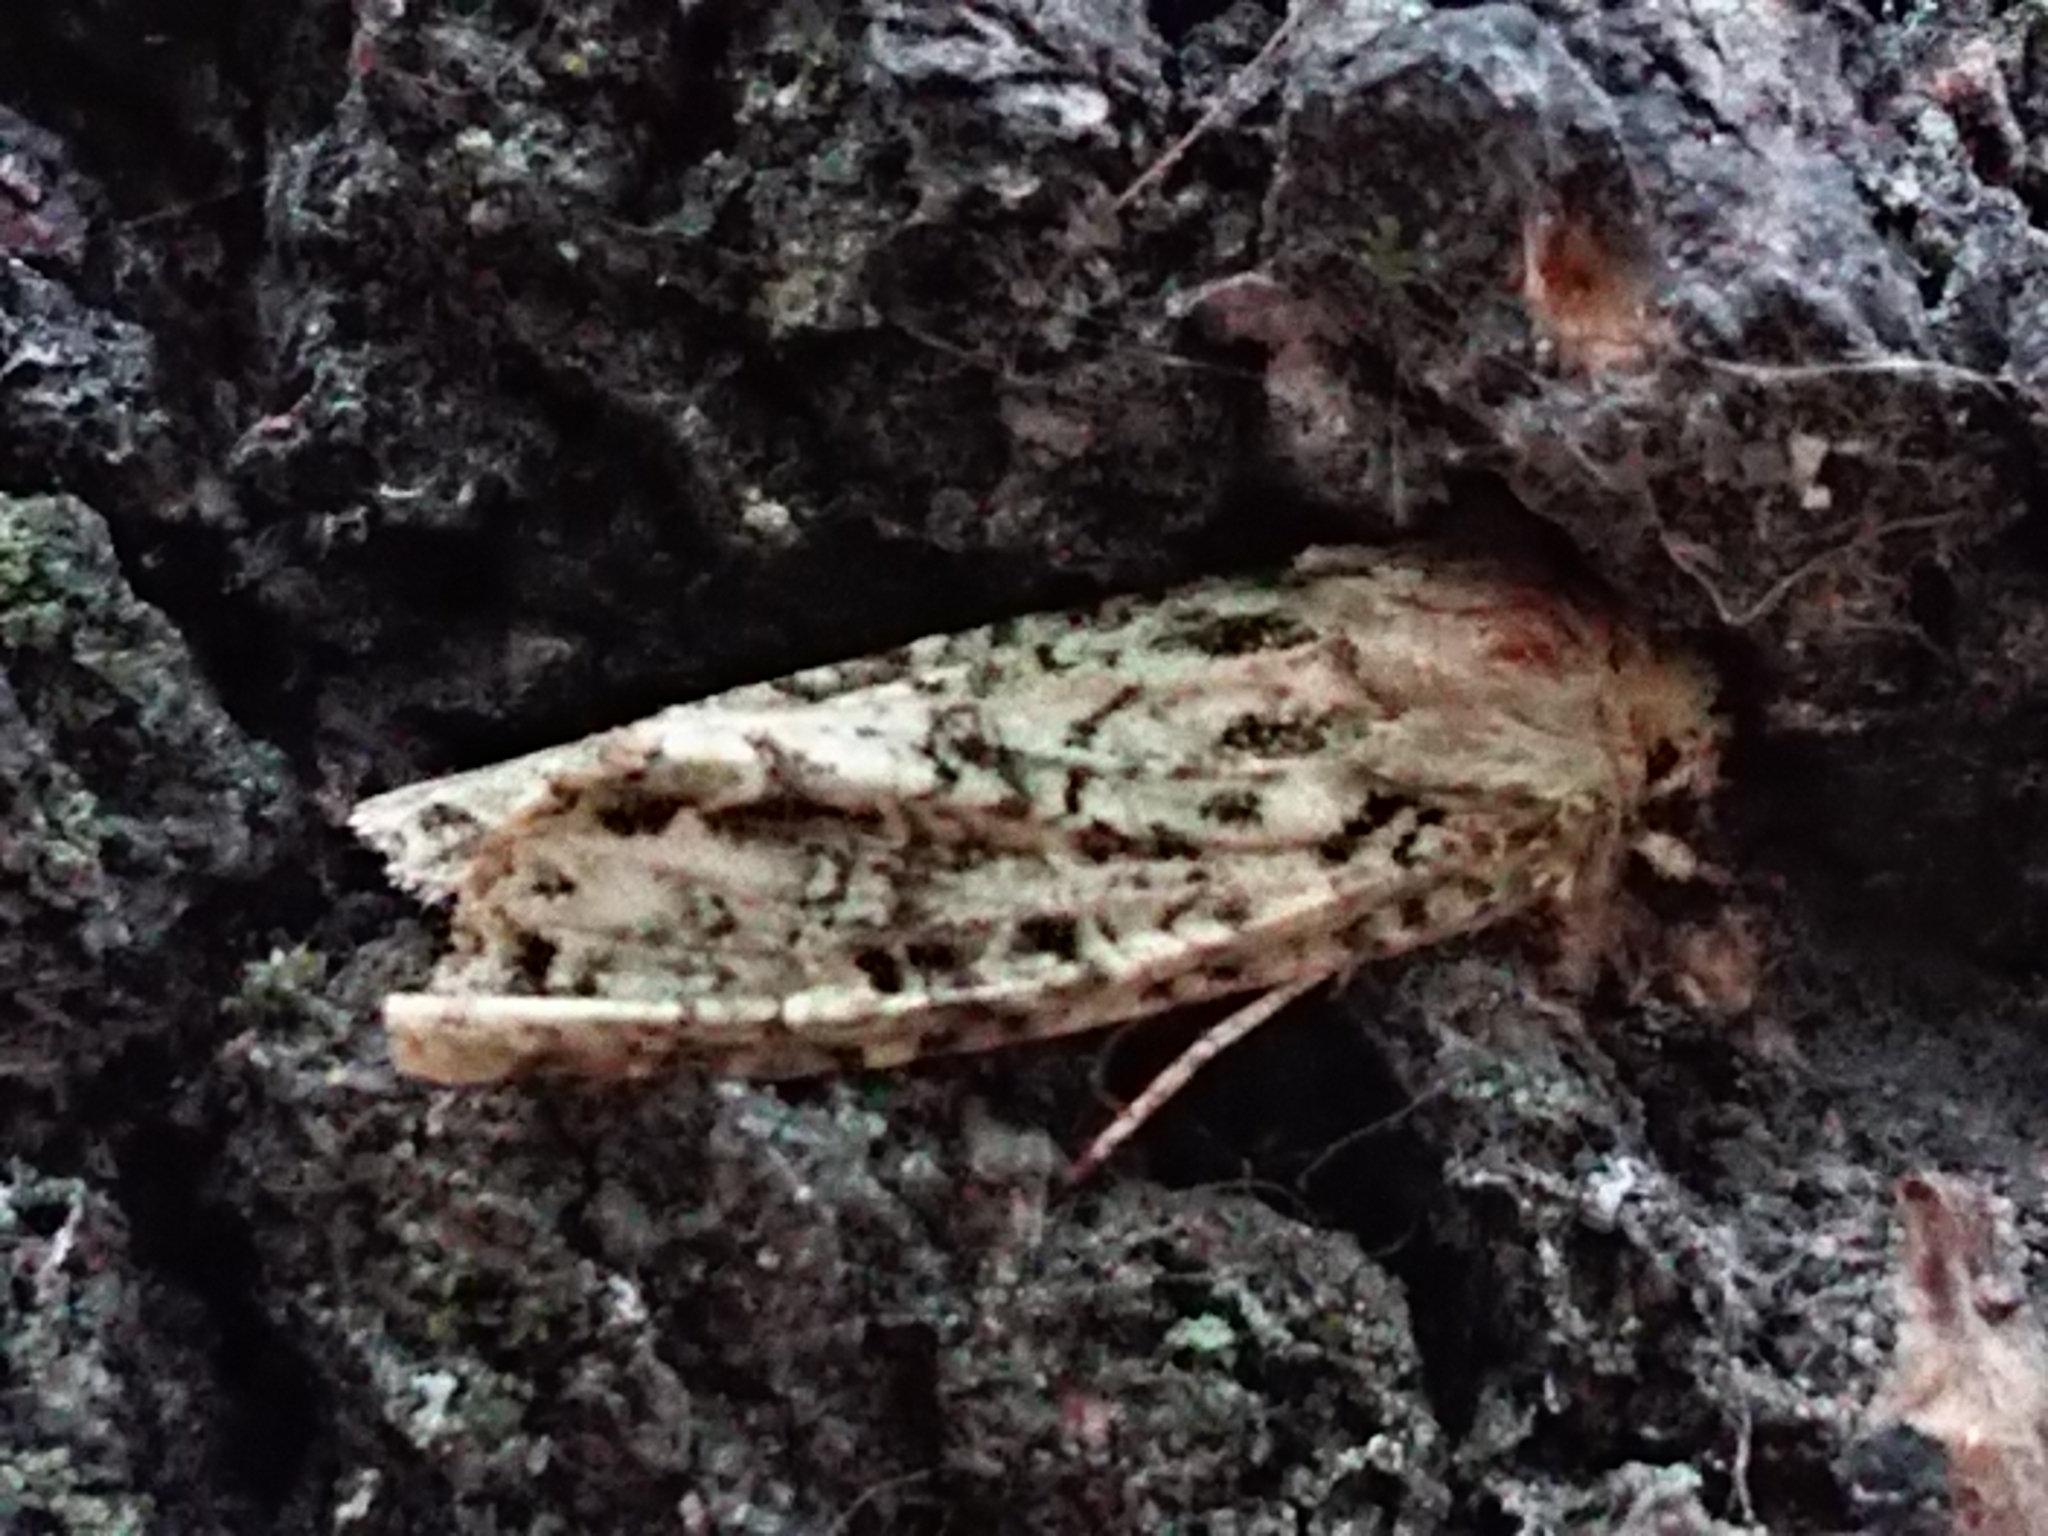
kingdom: Animalia
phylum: Arthropoda
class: Insecta
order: Lepidoptera
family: Noctuidae
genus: Ichneutica
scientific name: Ichneutica
